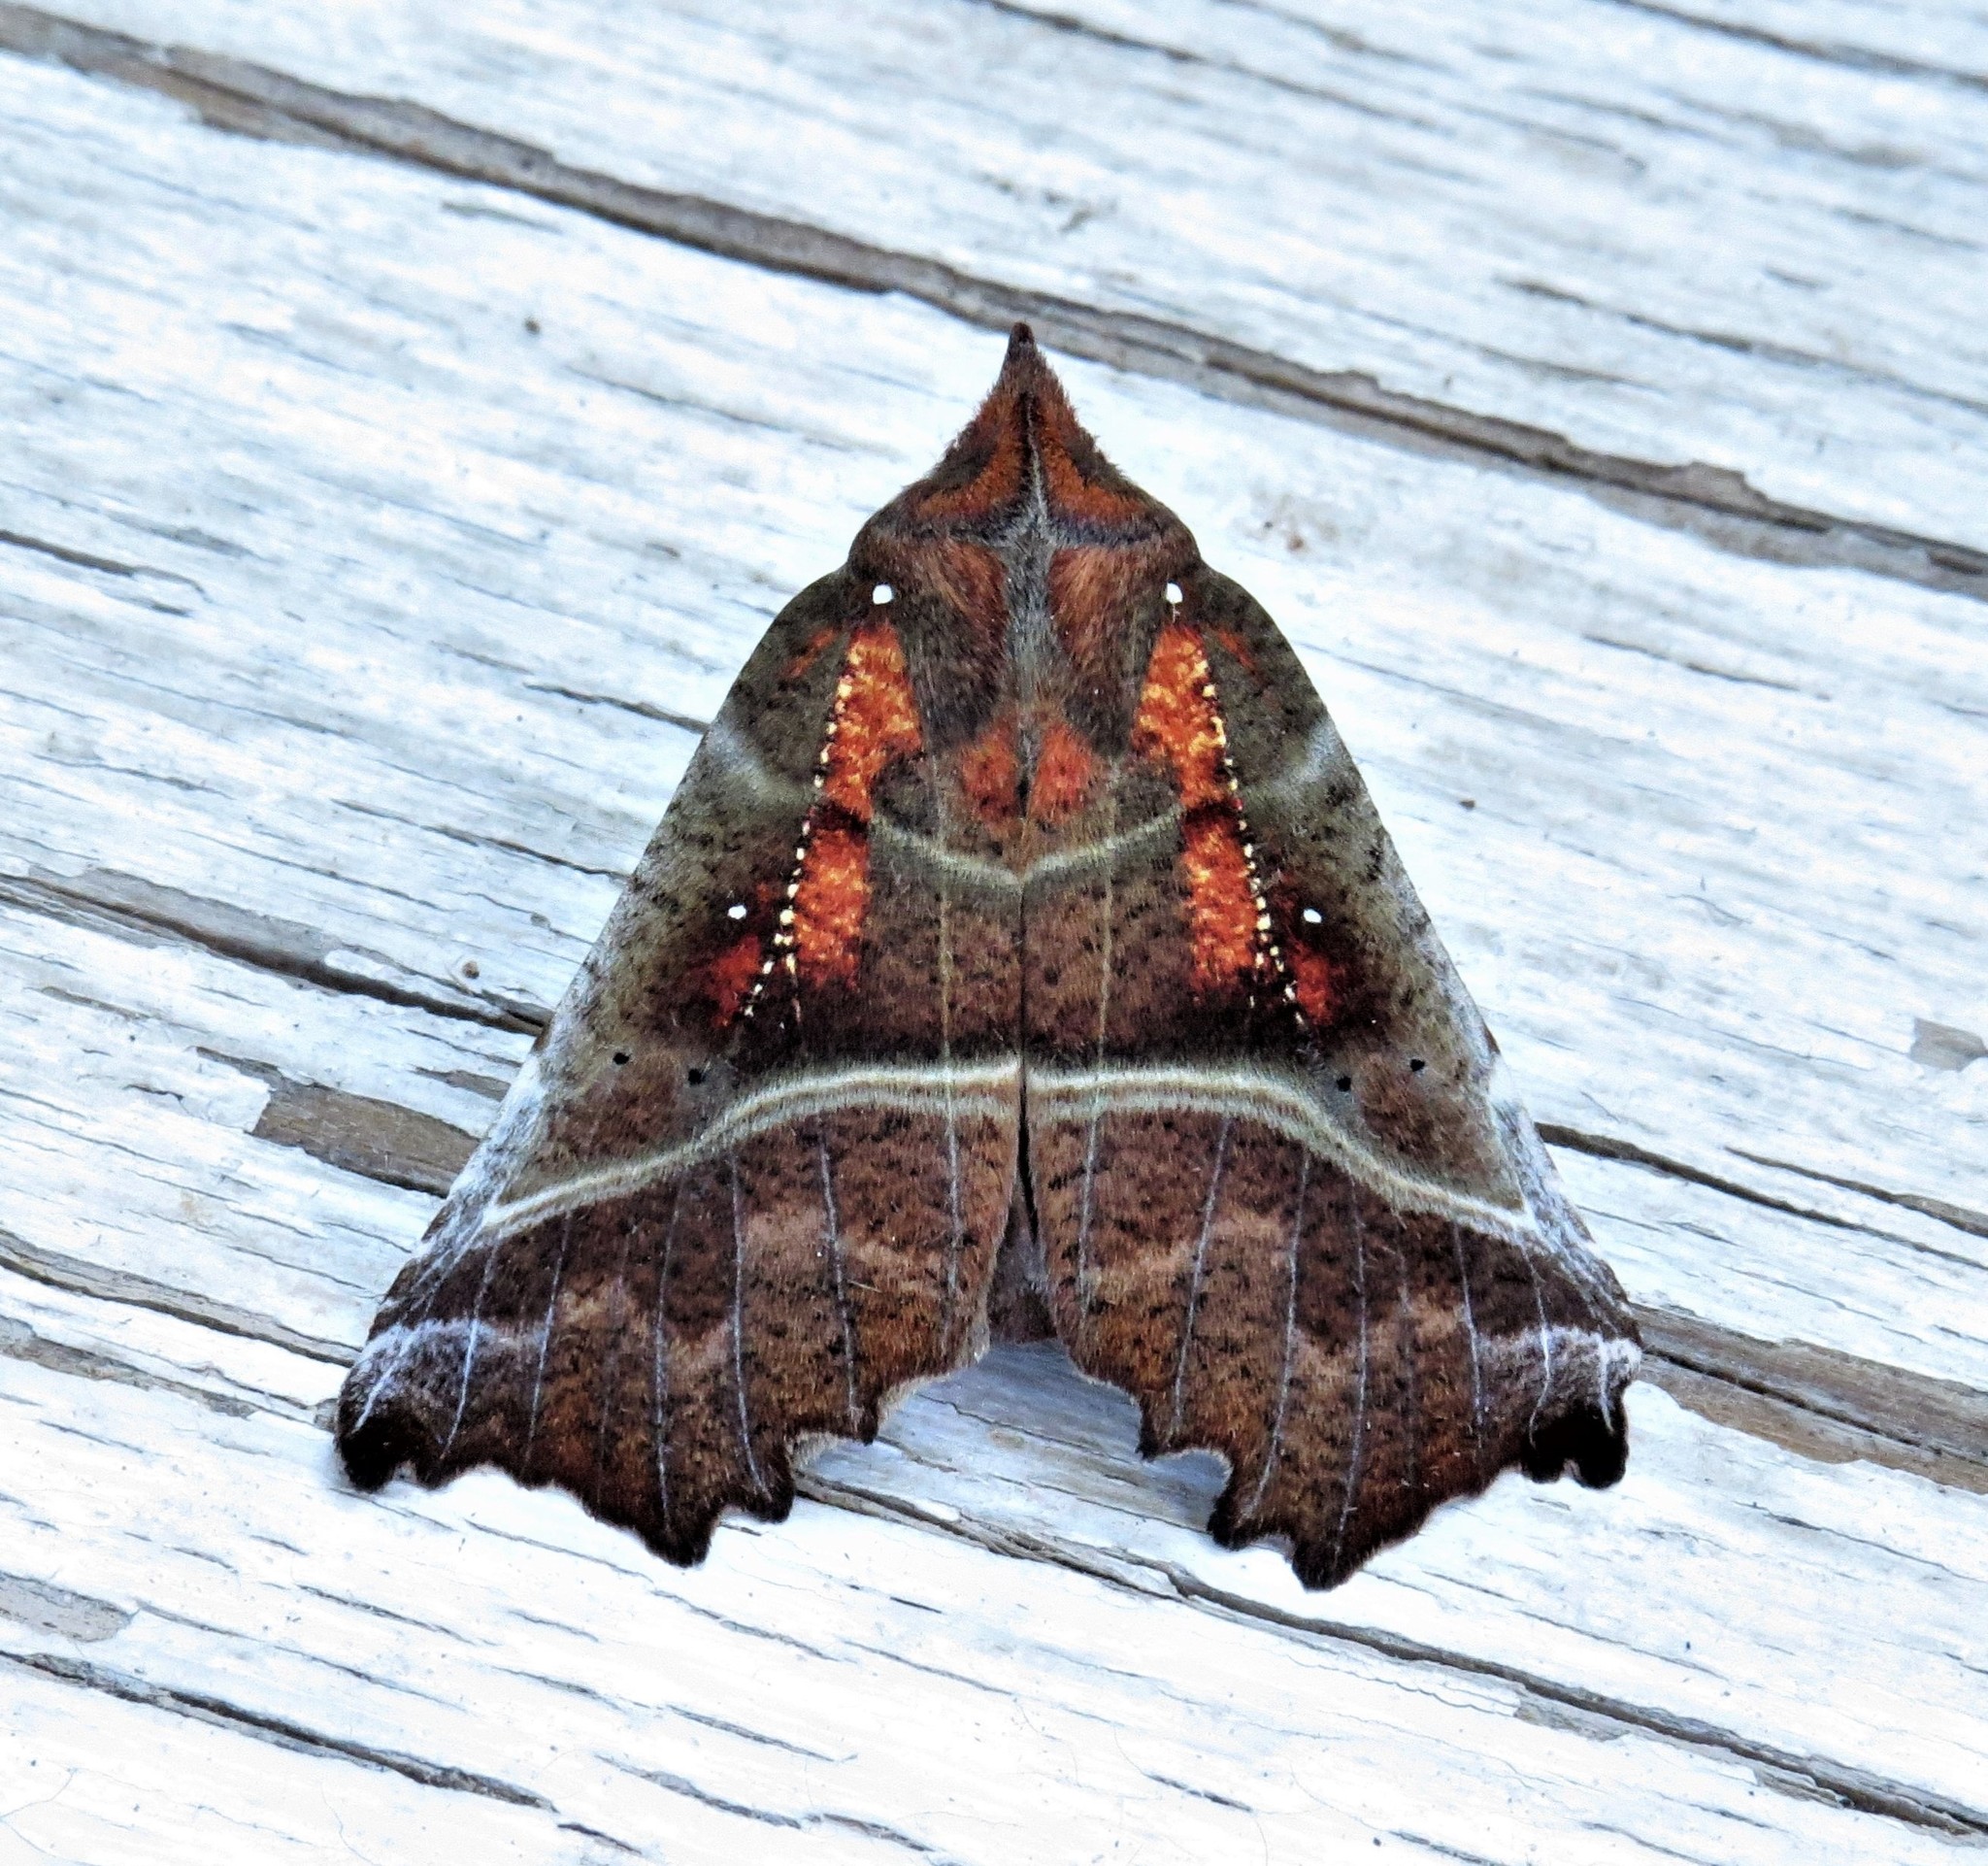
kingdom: Animalia
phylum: Arthropoda
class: Insecta
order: Lepidoptera
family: Erebidae
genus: Scoliopteryx
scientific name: Scoliopteryx libatrix
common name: Herald
